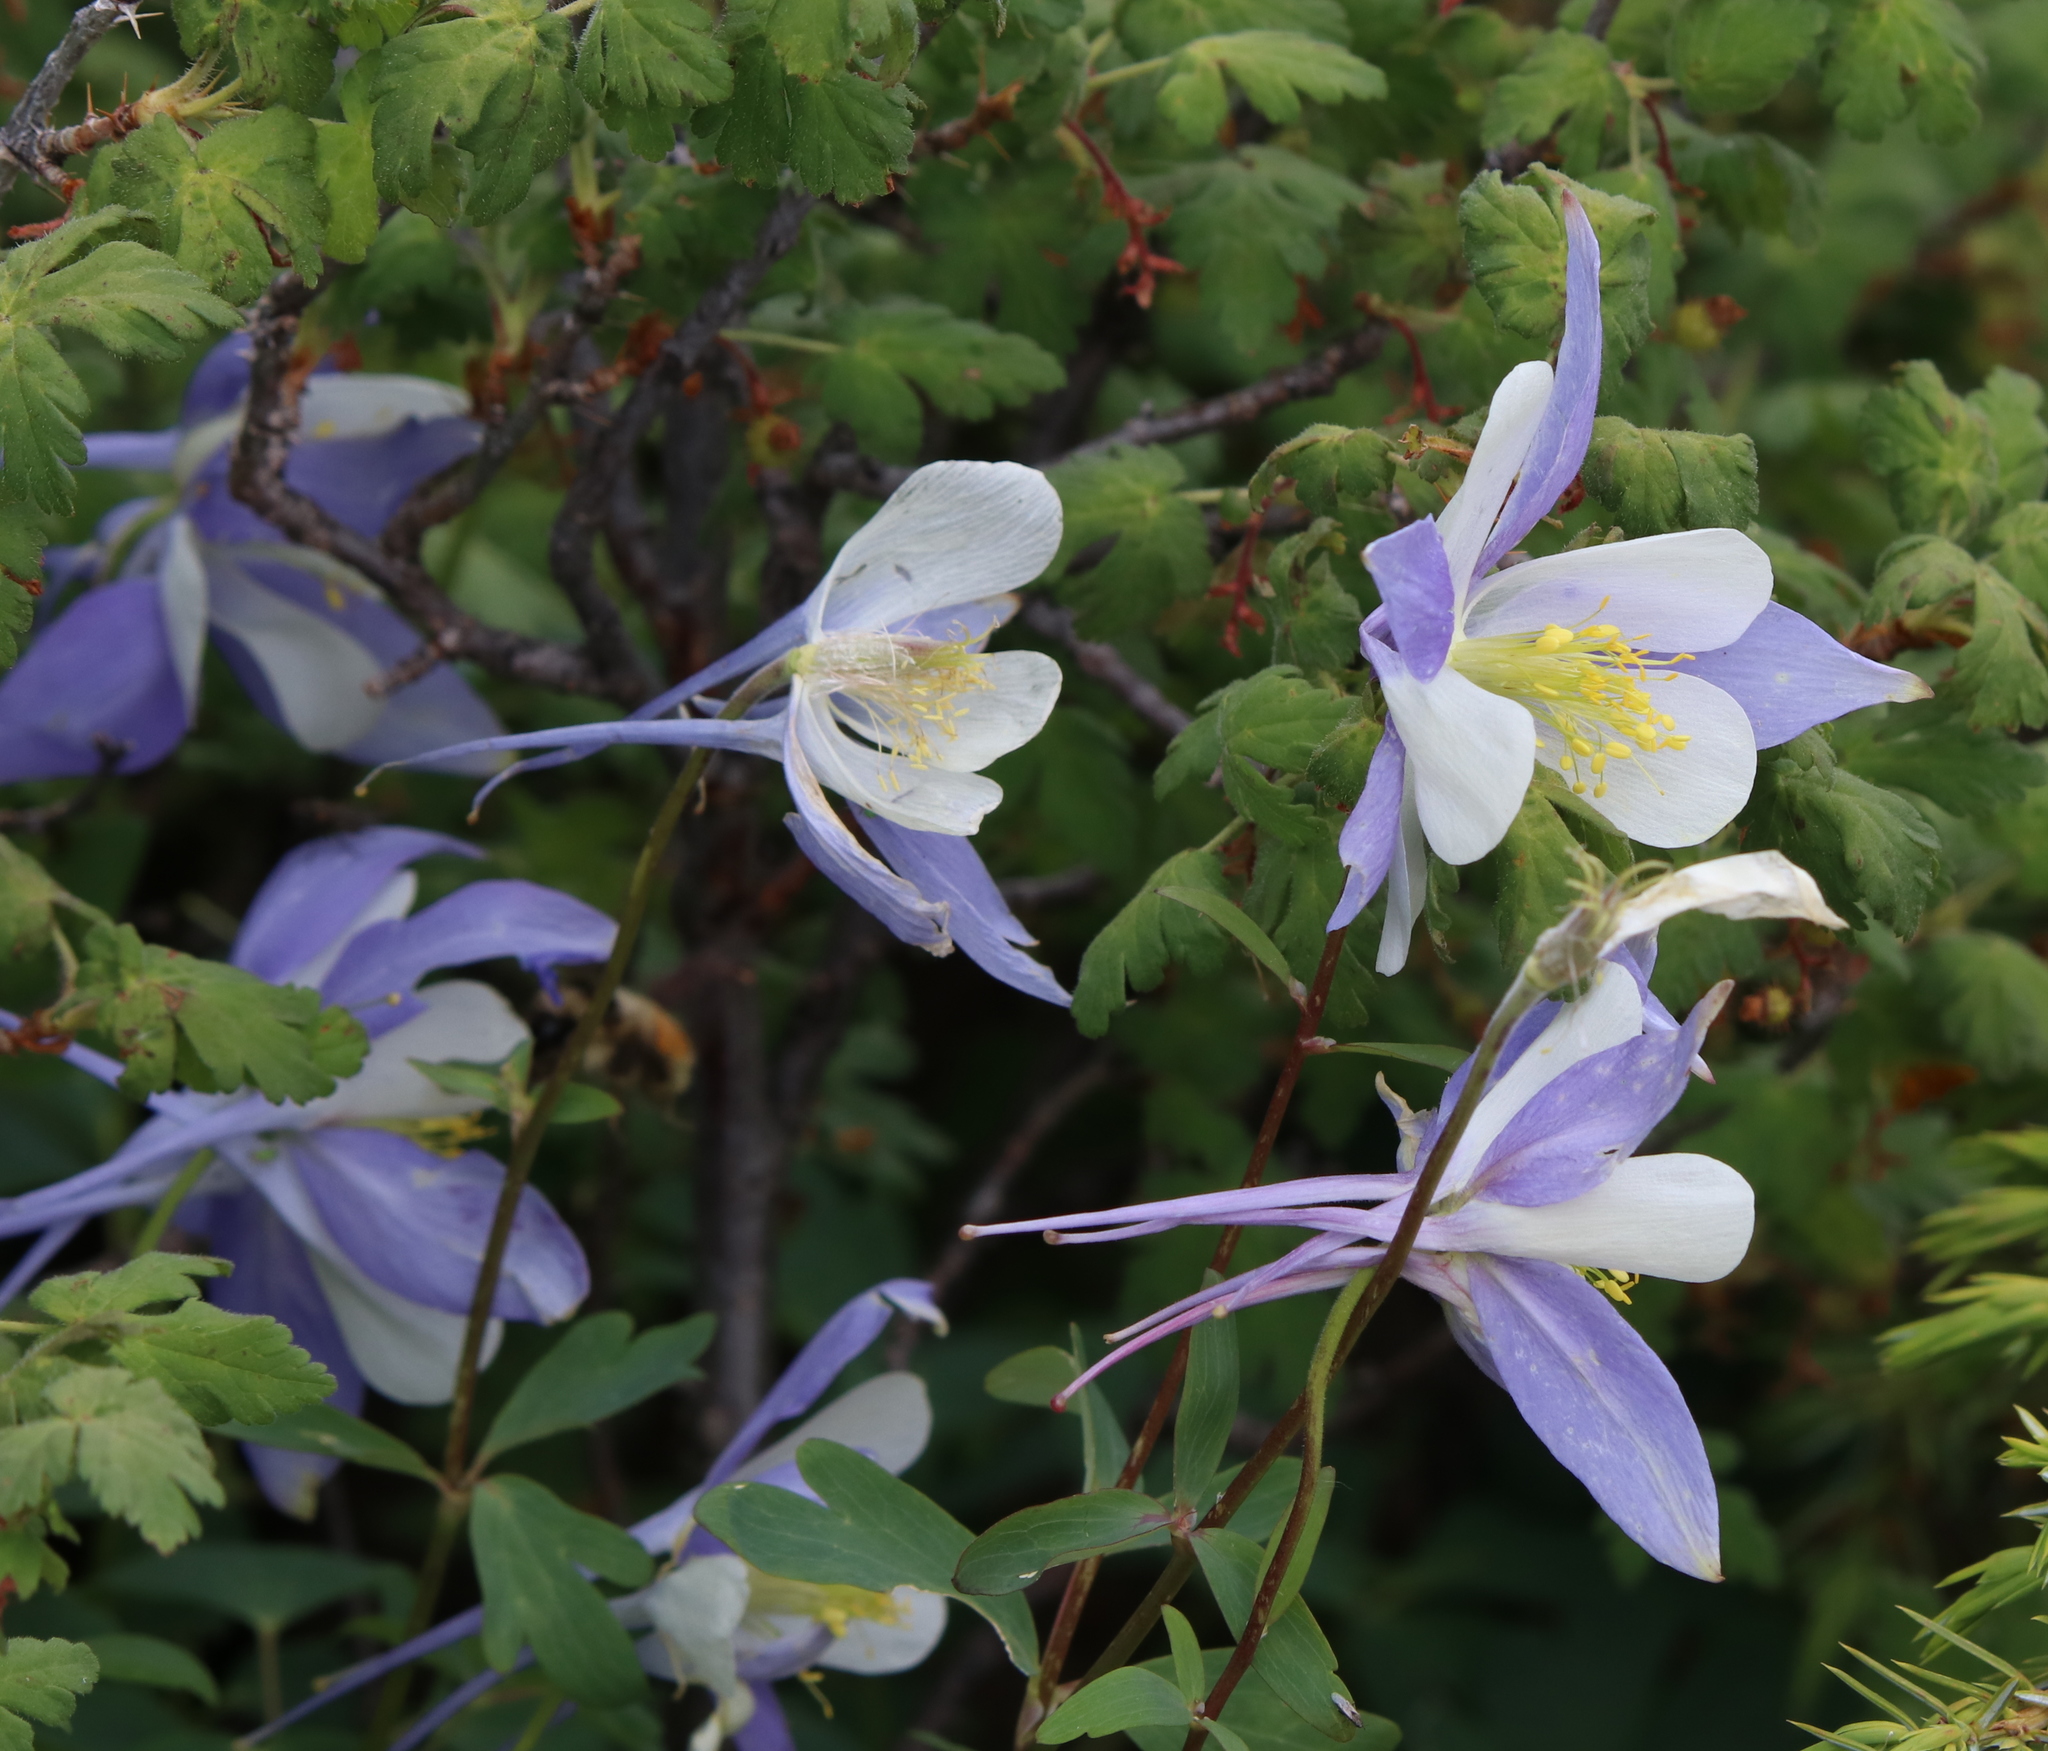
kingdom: Plantae
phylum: Tracheophyta
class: Magnoliopsida
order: Ranunculales
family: Ranunculaceae
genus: Aquilegia
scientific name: Aquilegia coerulea
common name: Rocky mountain columbine
